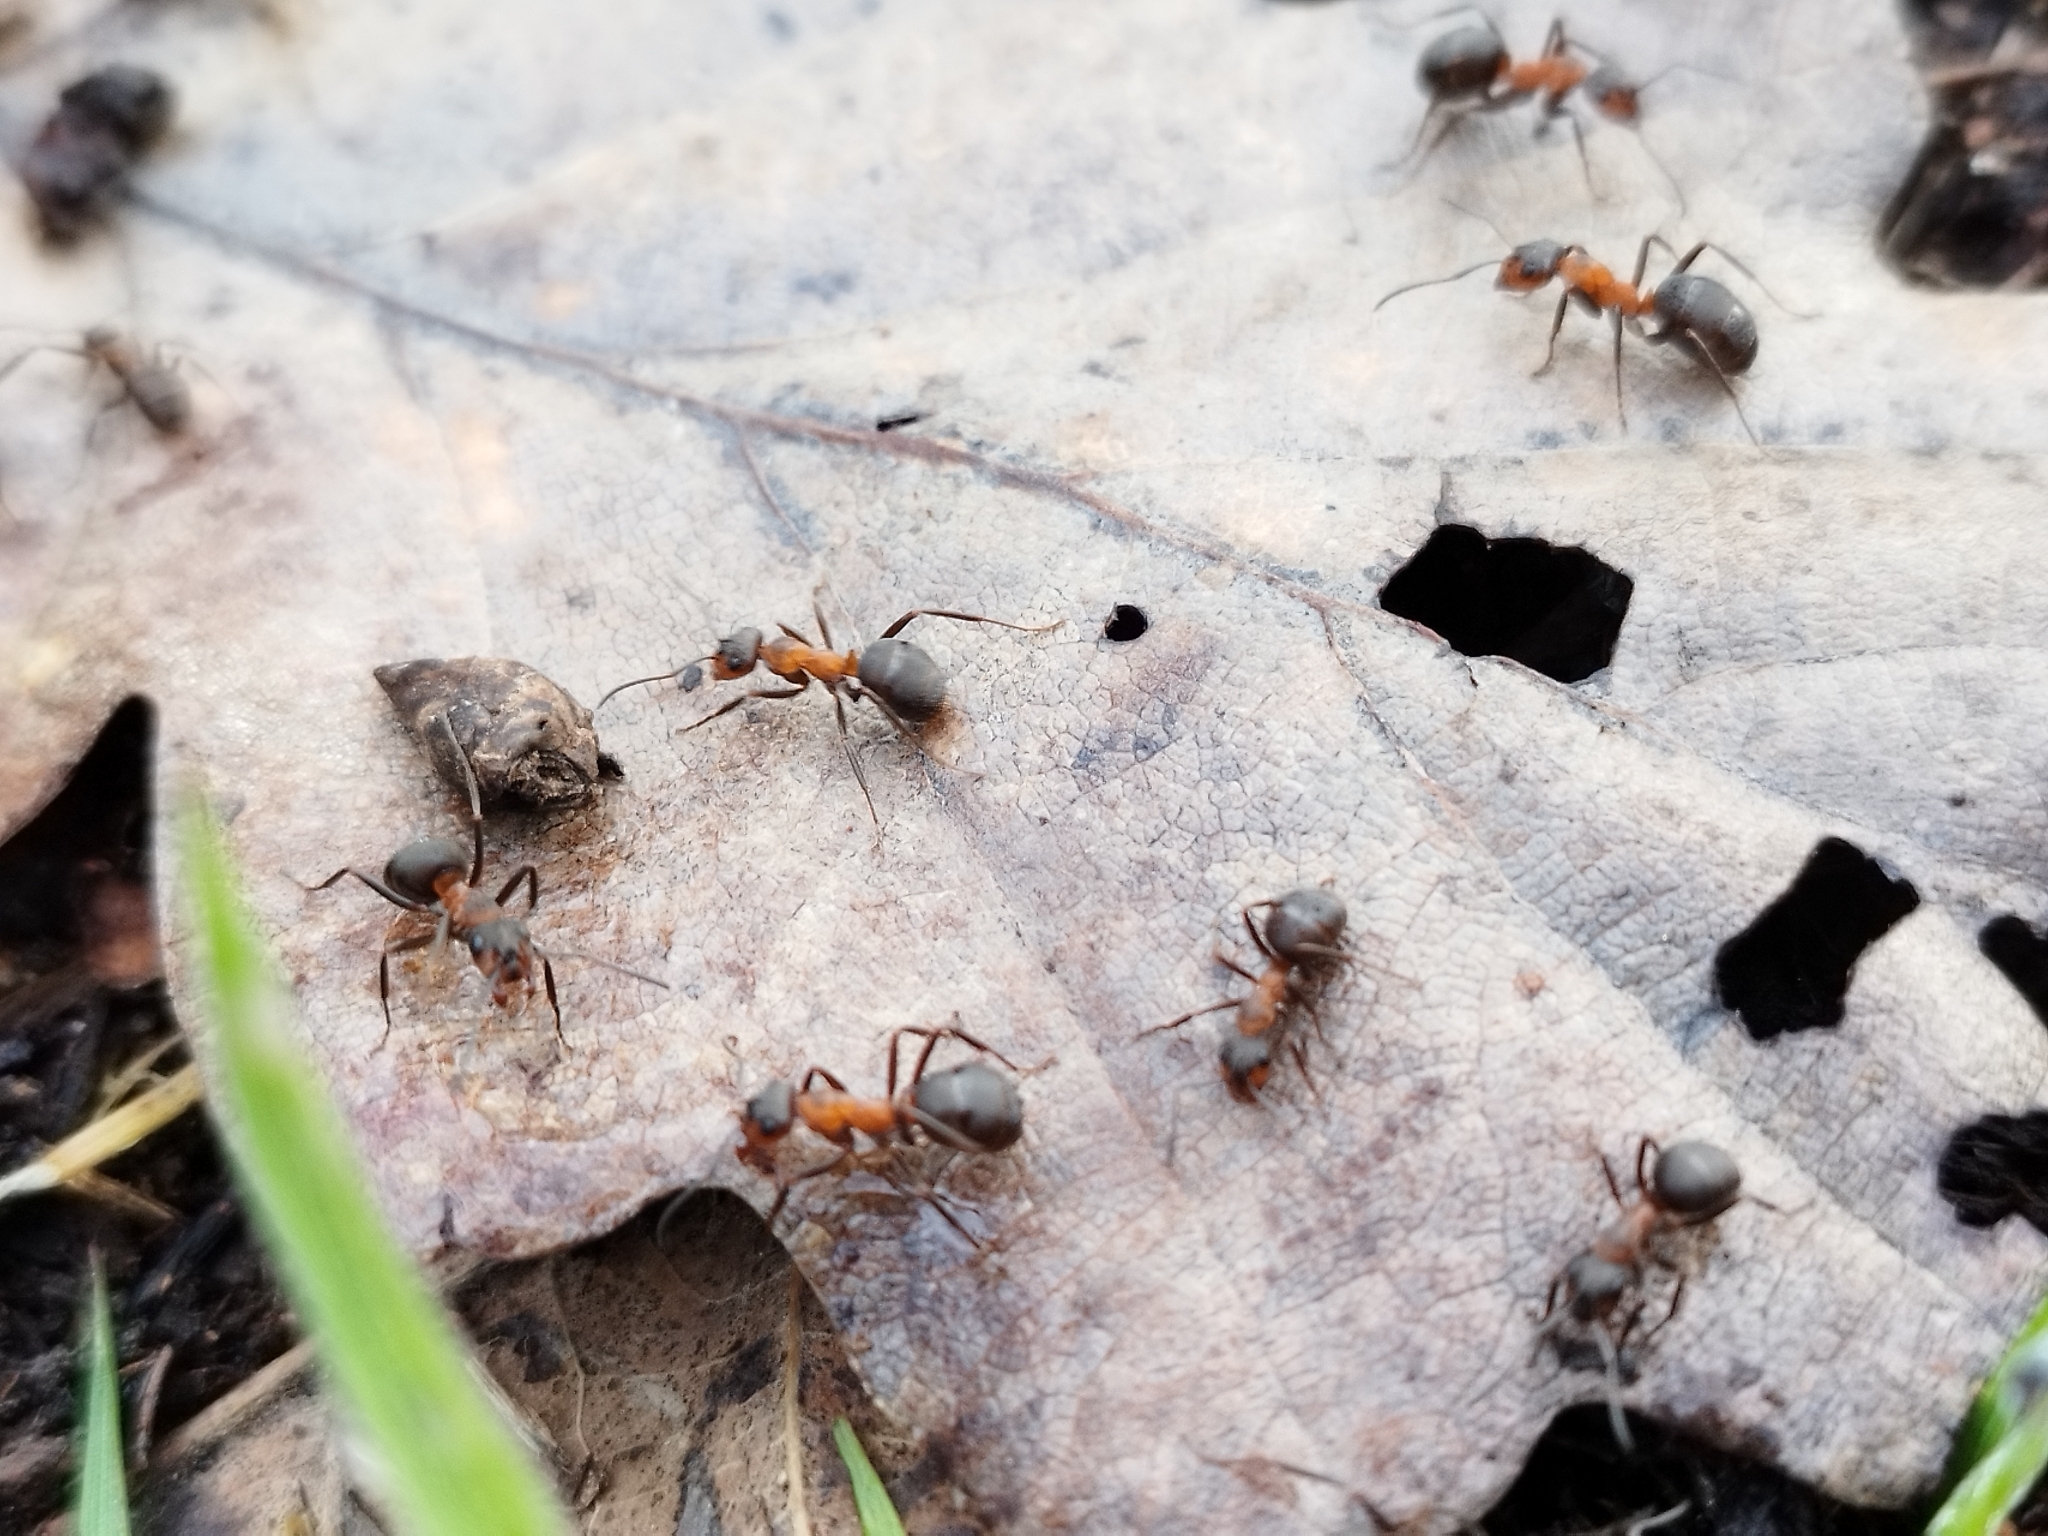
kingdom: Animalia
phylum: Arthropoda
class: Insecta
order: Hymenoptera
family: Formicidae
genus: Formica
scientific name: Formica
